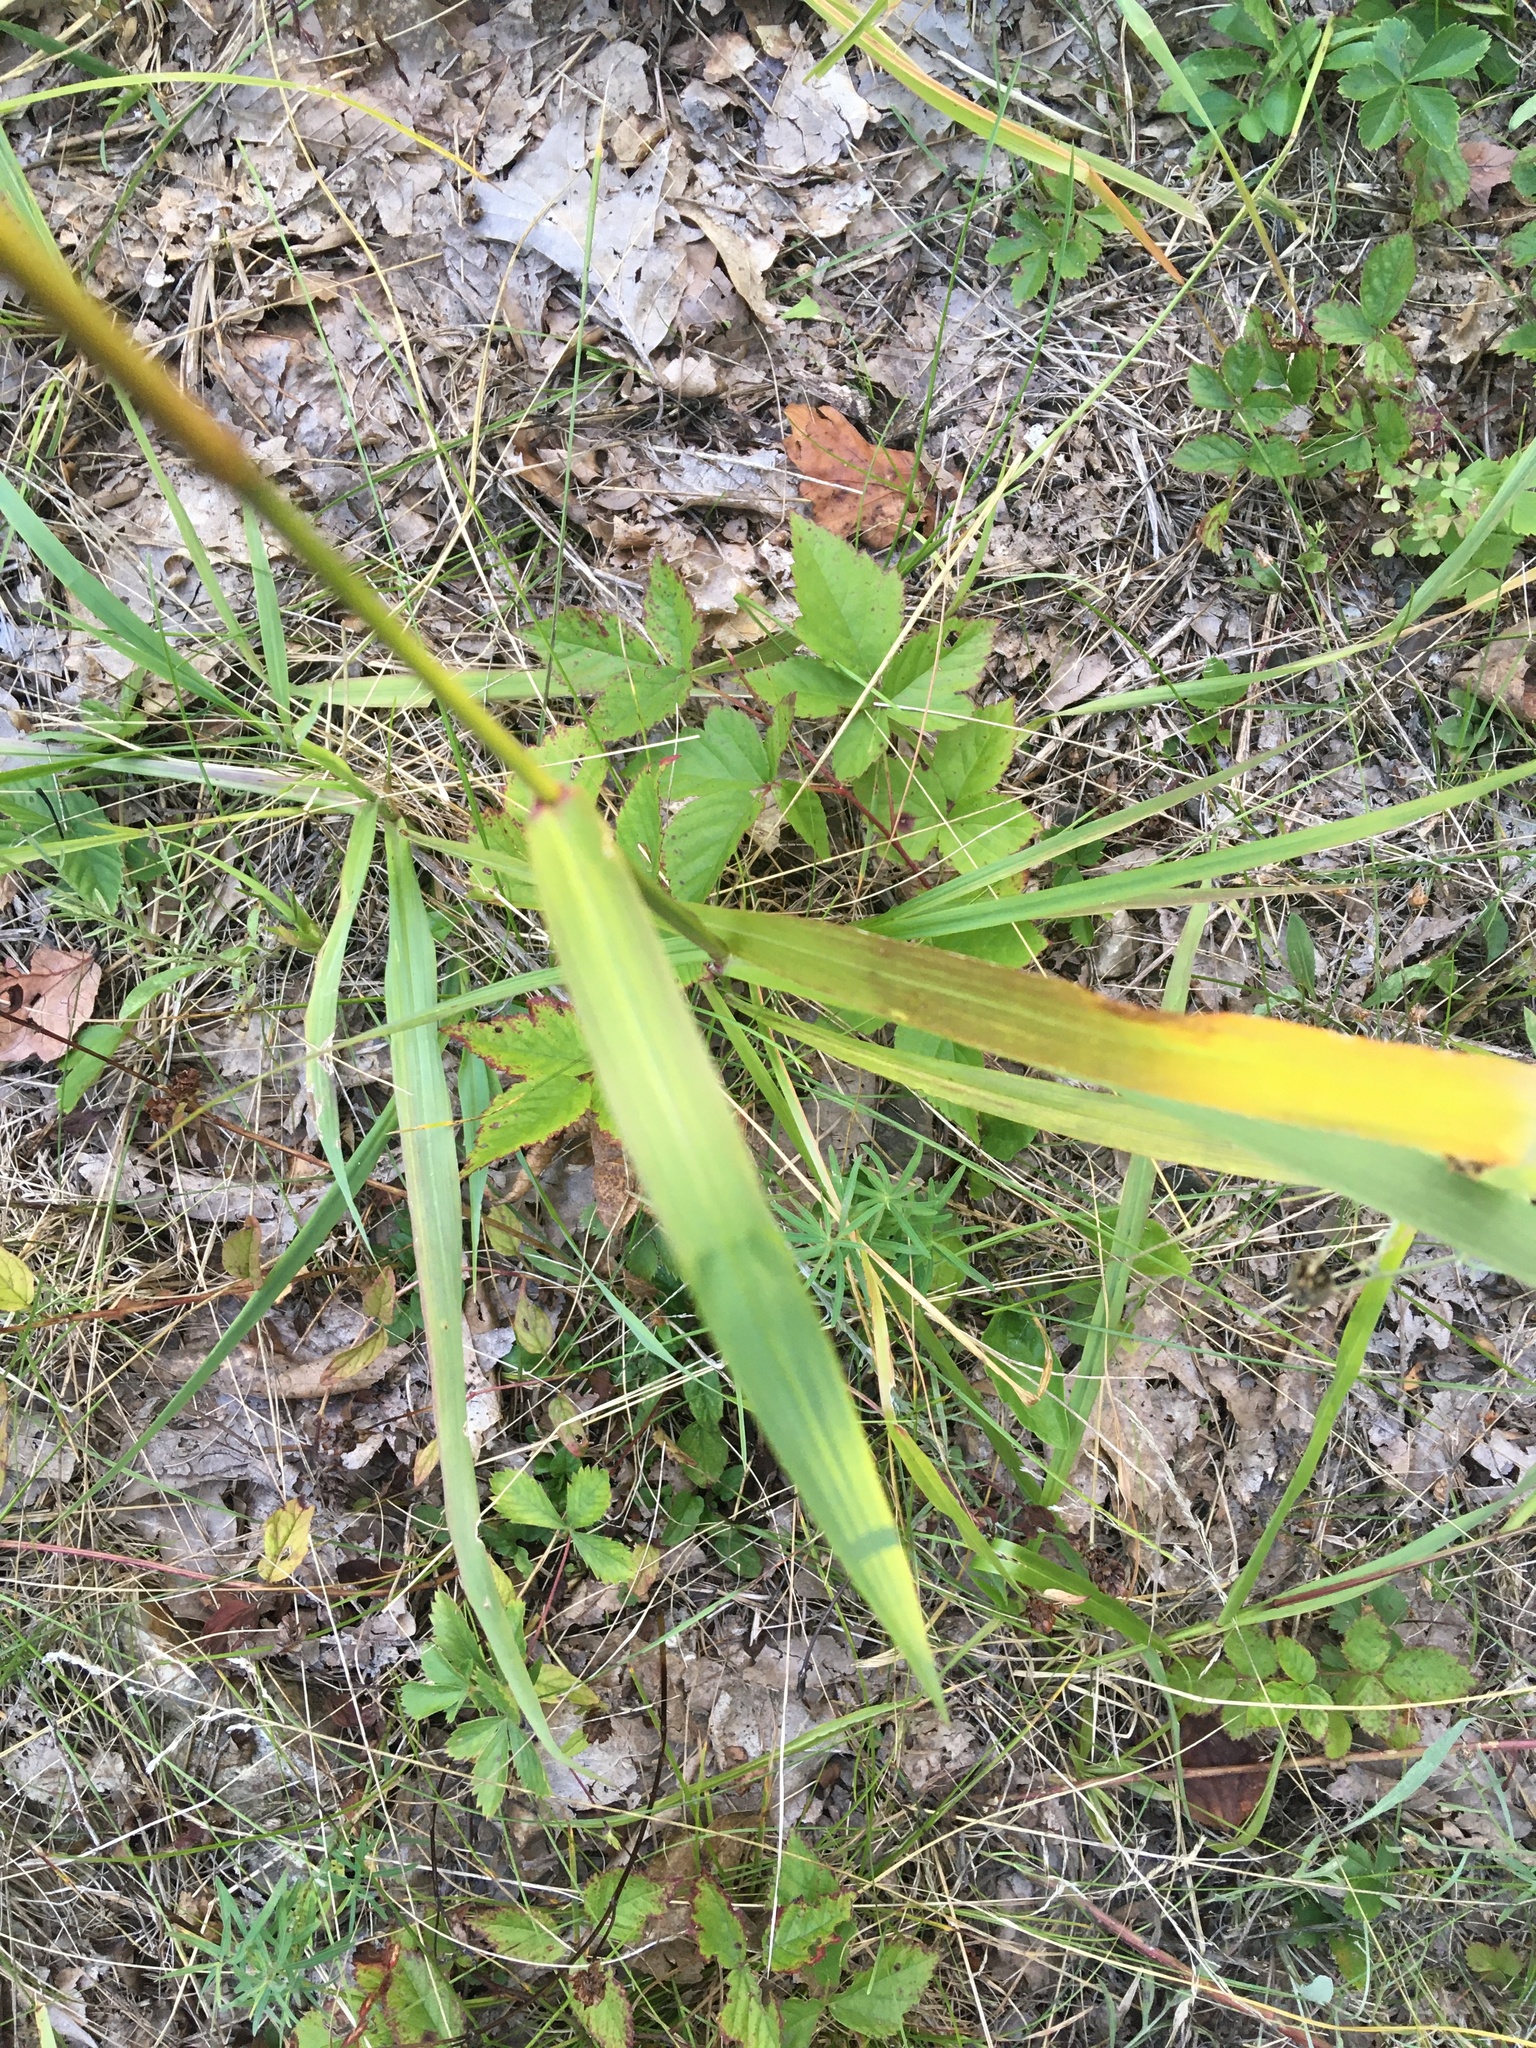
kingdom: Plantae
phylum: Tracheophyta
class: Liliopsida
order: Poales
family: Poaceae
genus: Tridens
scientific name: Tridens flavus
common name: Purpletop
